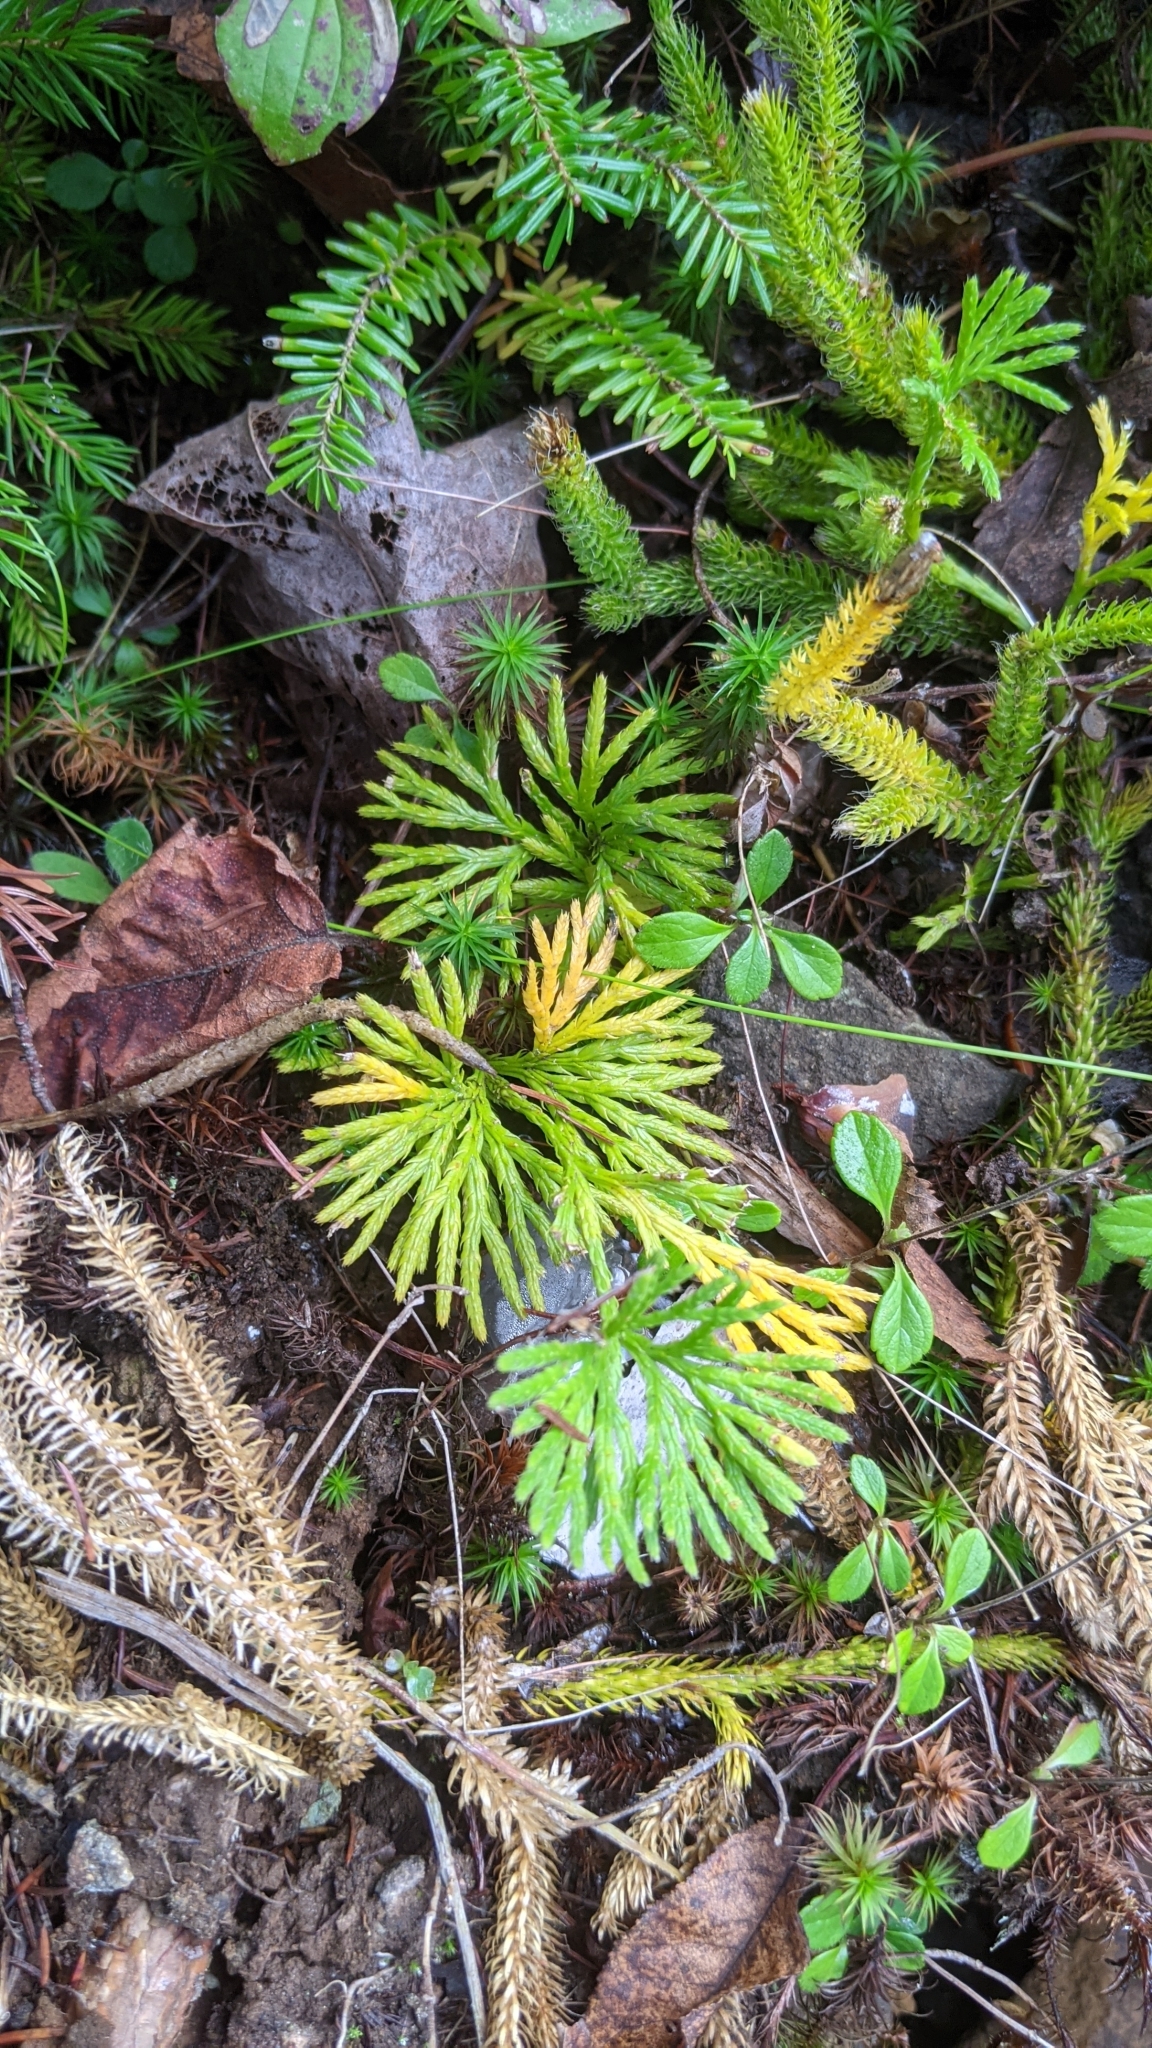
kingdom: Plantae
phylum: Tracheophyta
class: Lycopodiopsida
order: Lycopodiales
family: Lycopodiaceae
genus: Diphasiastrum
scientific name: Diphasiastrum digitatum
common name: Southern running-pine
